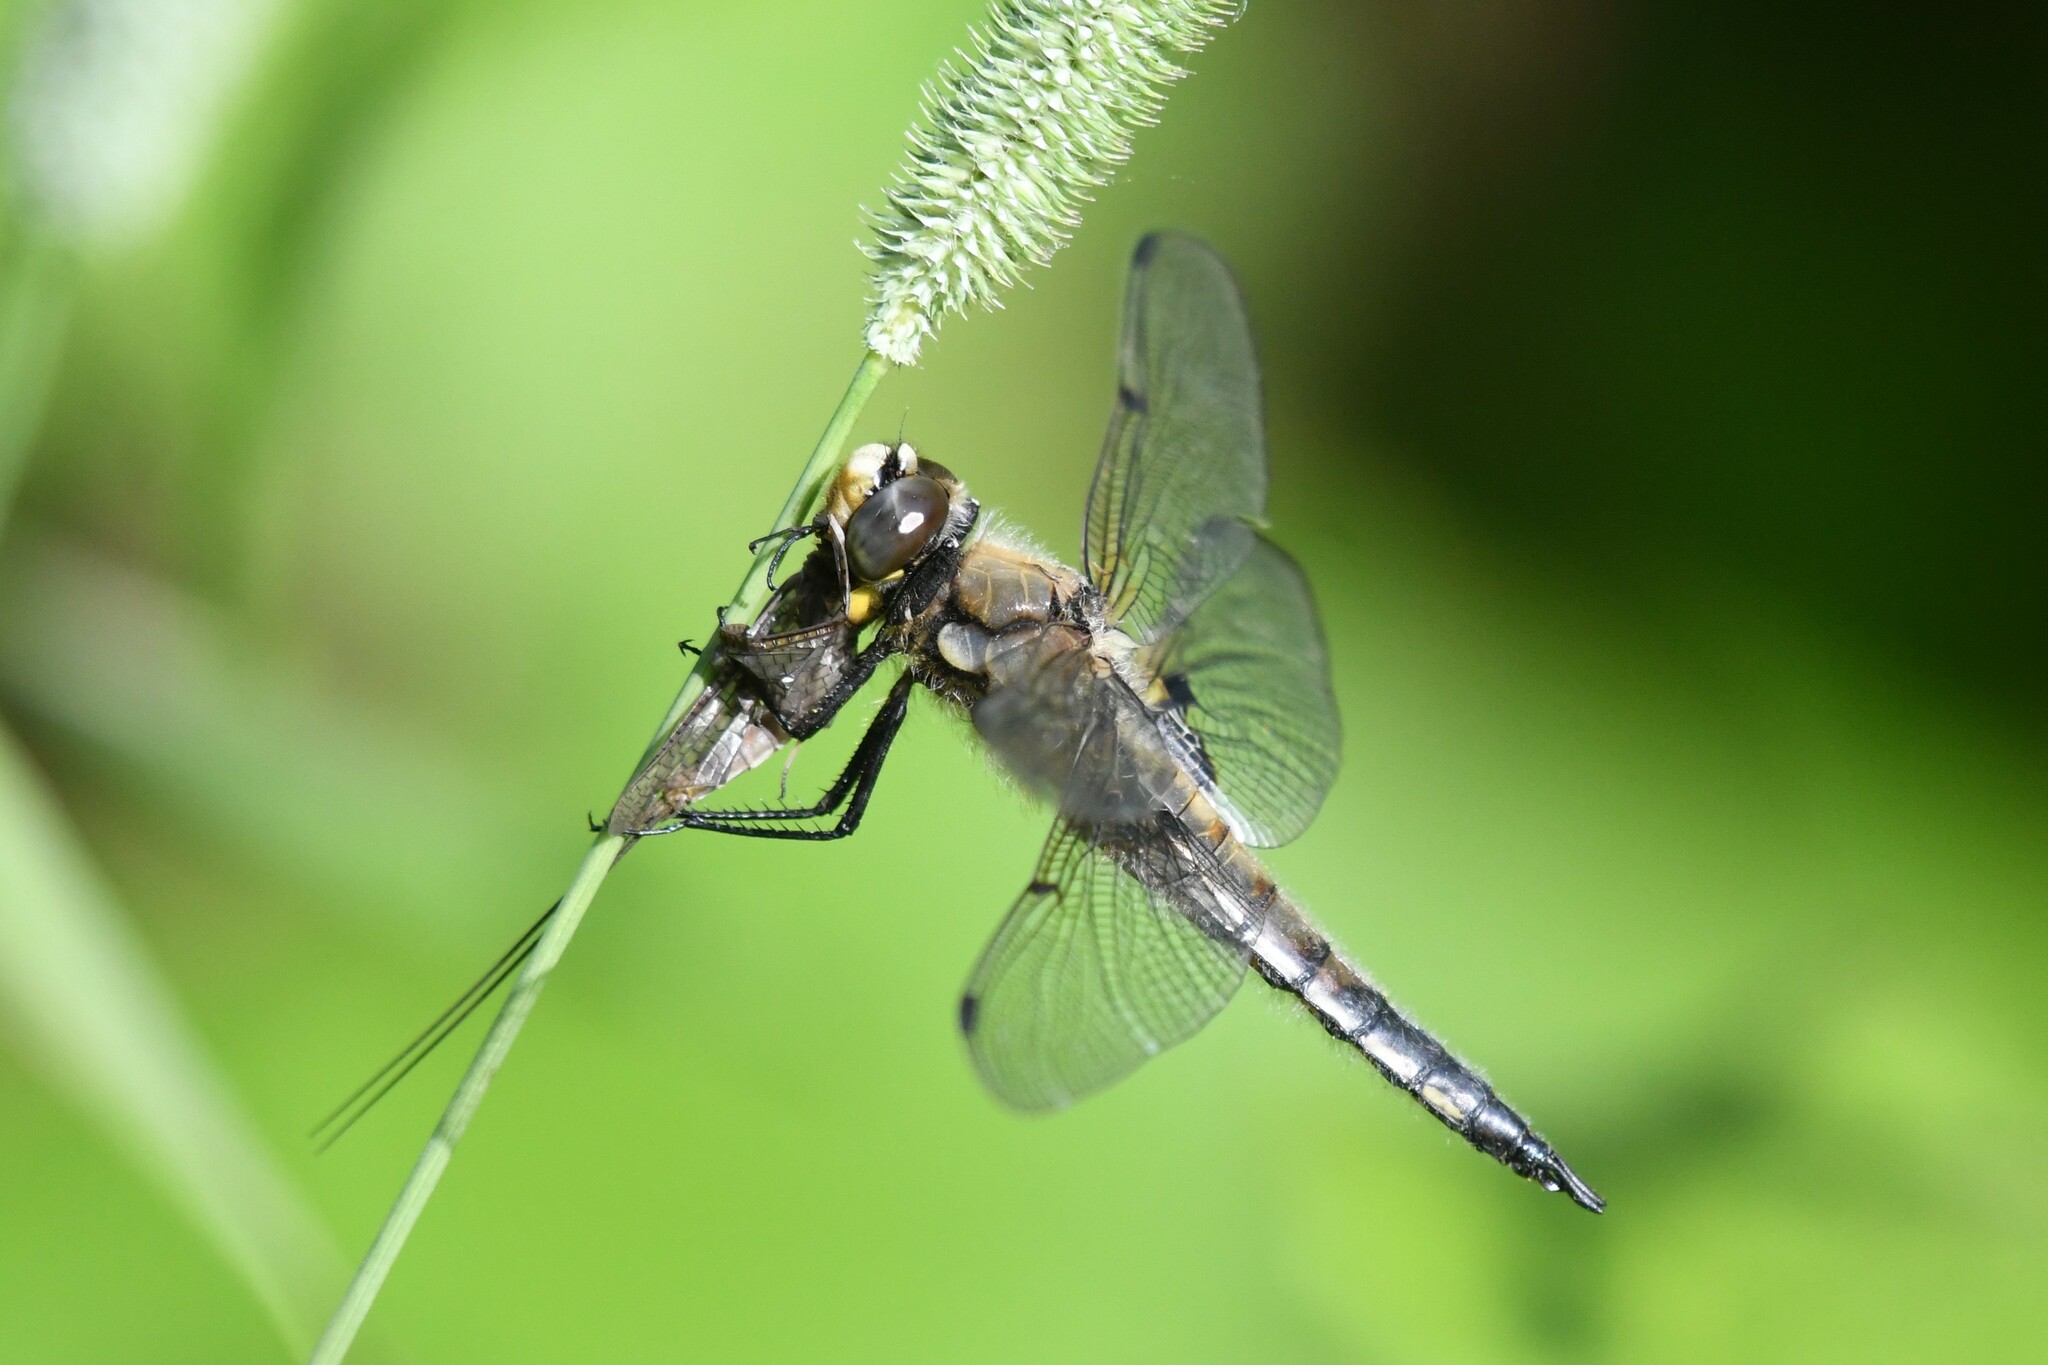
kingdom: Animalia
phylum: Arthropoda
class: Insecta
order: Odonata
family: Libellulidae
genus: Libellula
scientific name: Libellula quadrimaculata
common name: Four-spotted chaser
